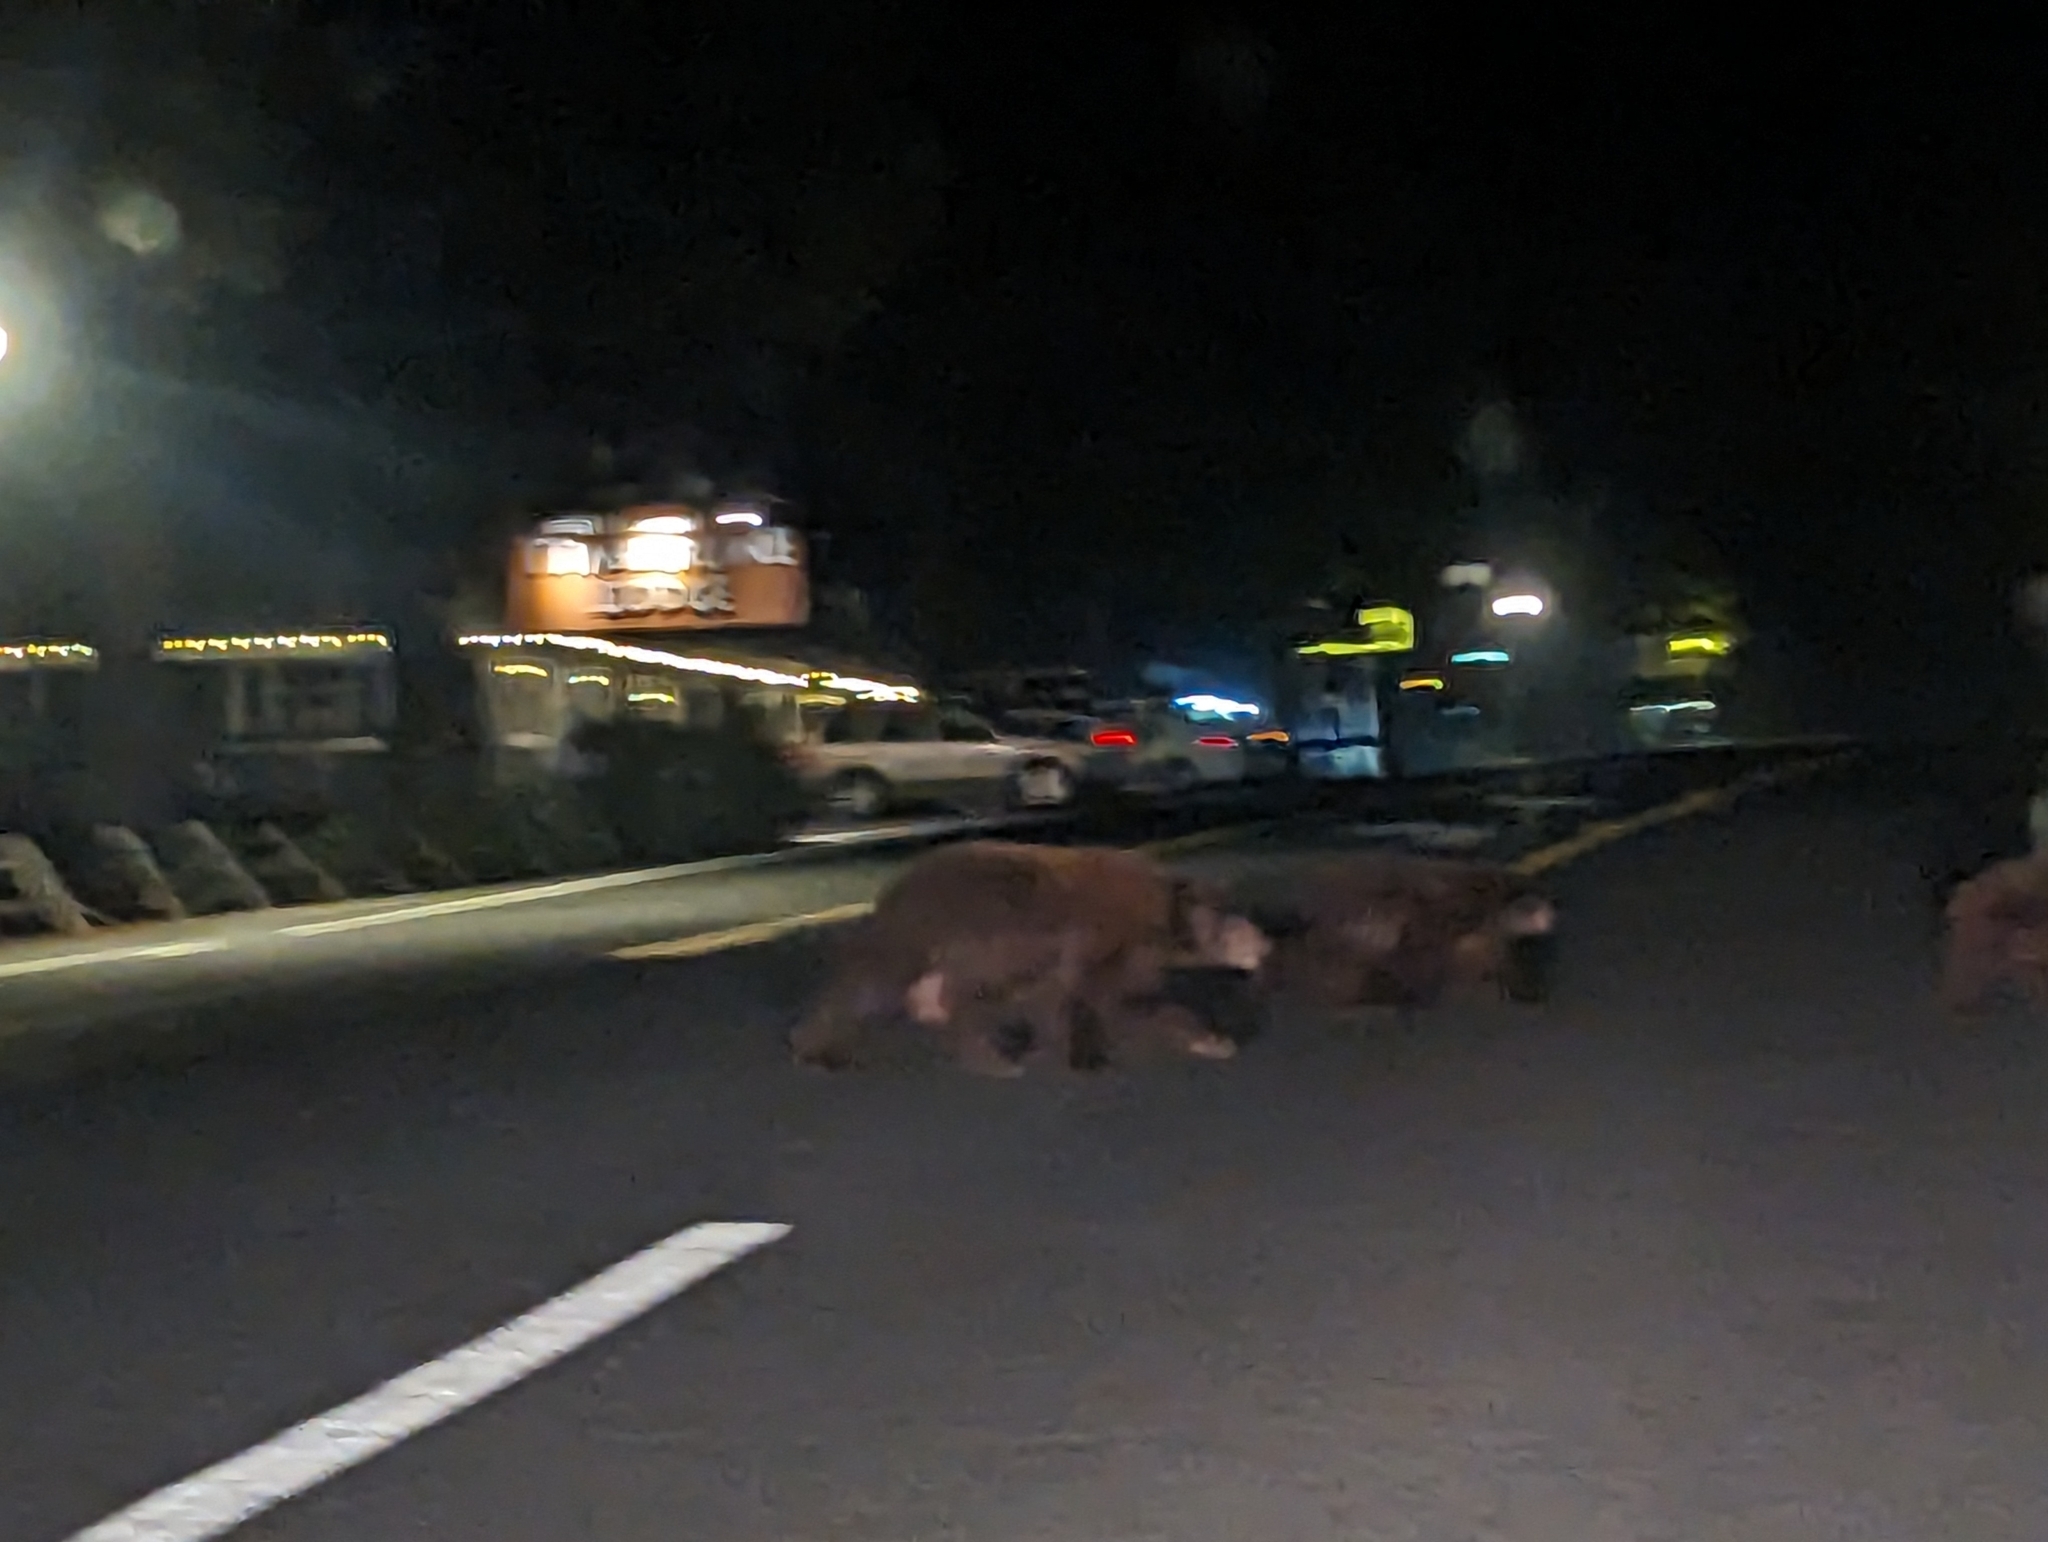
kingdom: Animalia
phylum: Chordata
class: Mammalia
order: Carnivora
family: Ursidae
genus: Ursus
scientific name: Ursus americanus
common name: American black bear
